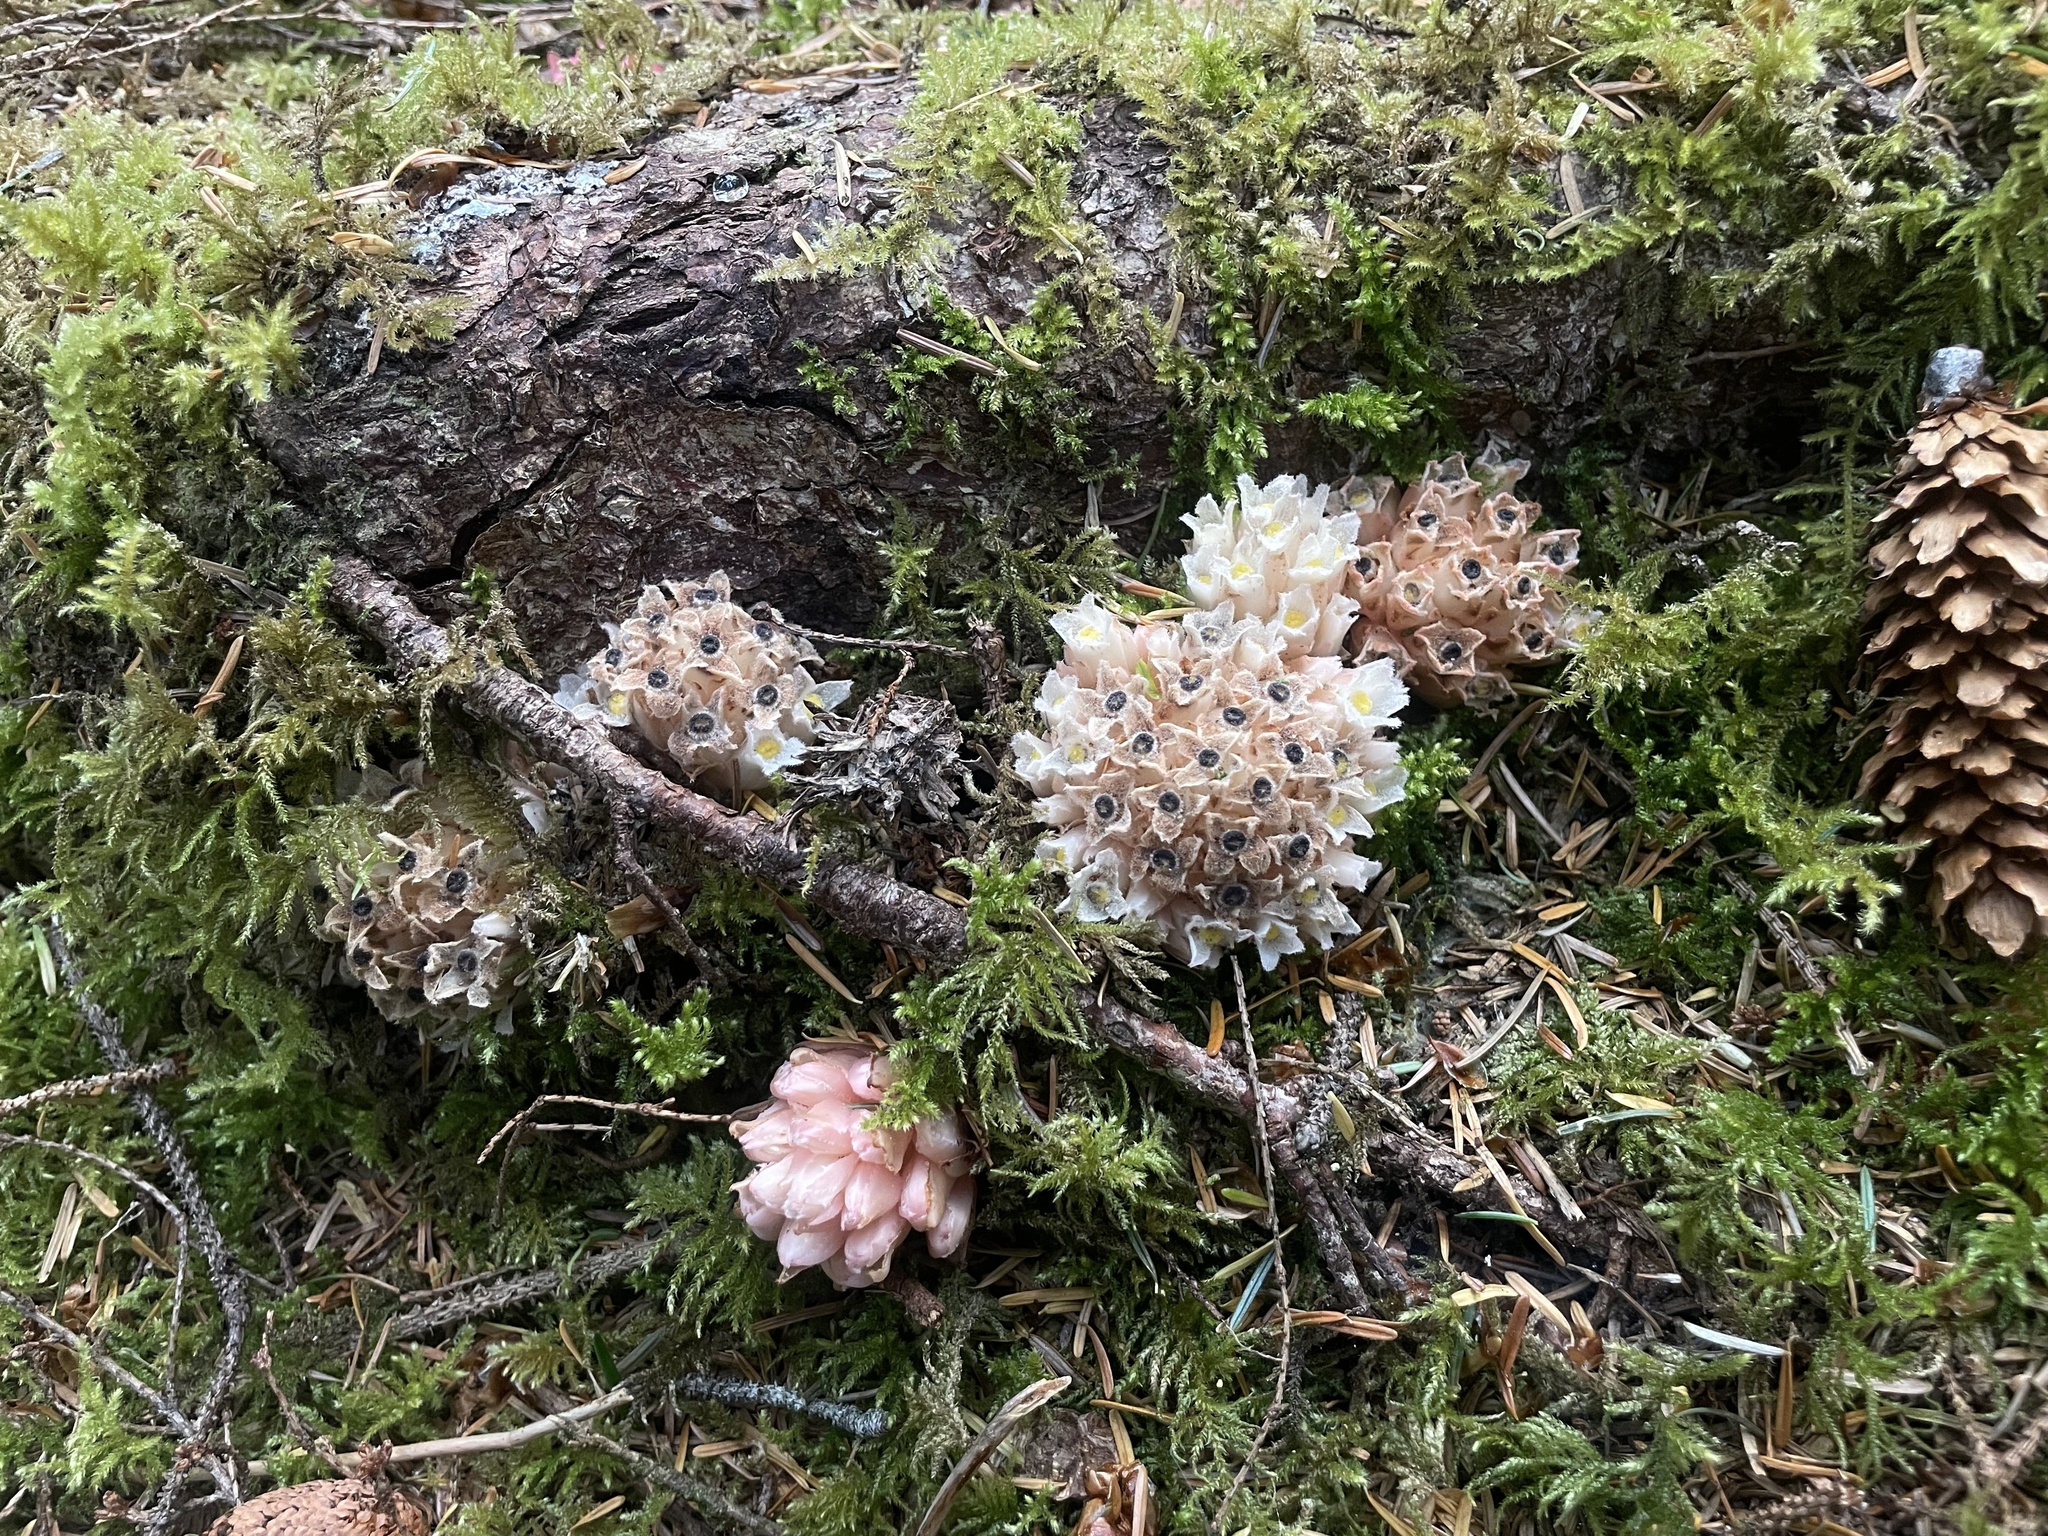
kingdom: Plantae
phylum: Tracheophyta
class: Magnoliopsida
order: Ericales
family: Ericaceae
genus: Hemitomes
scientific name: Hemitomes congestum
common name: Cone plant
